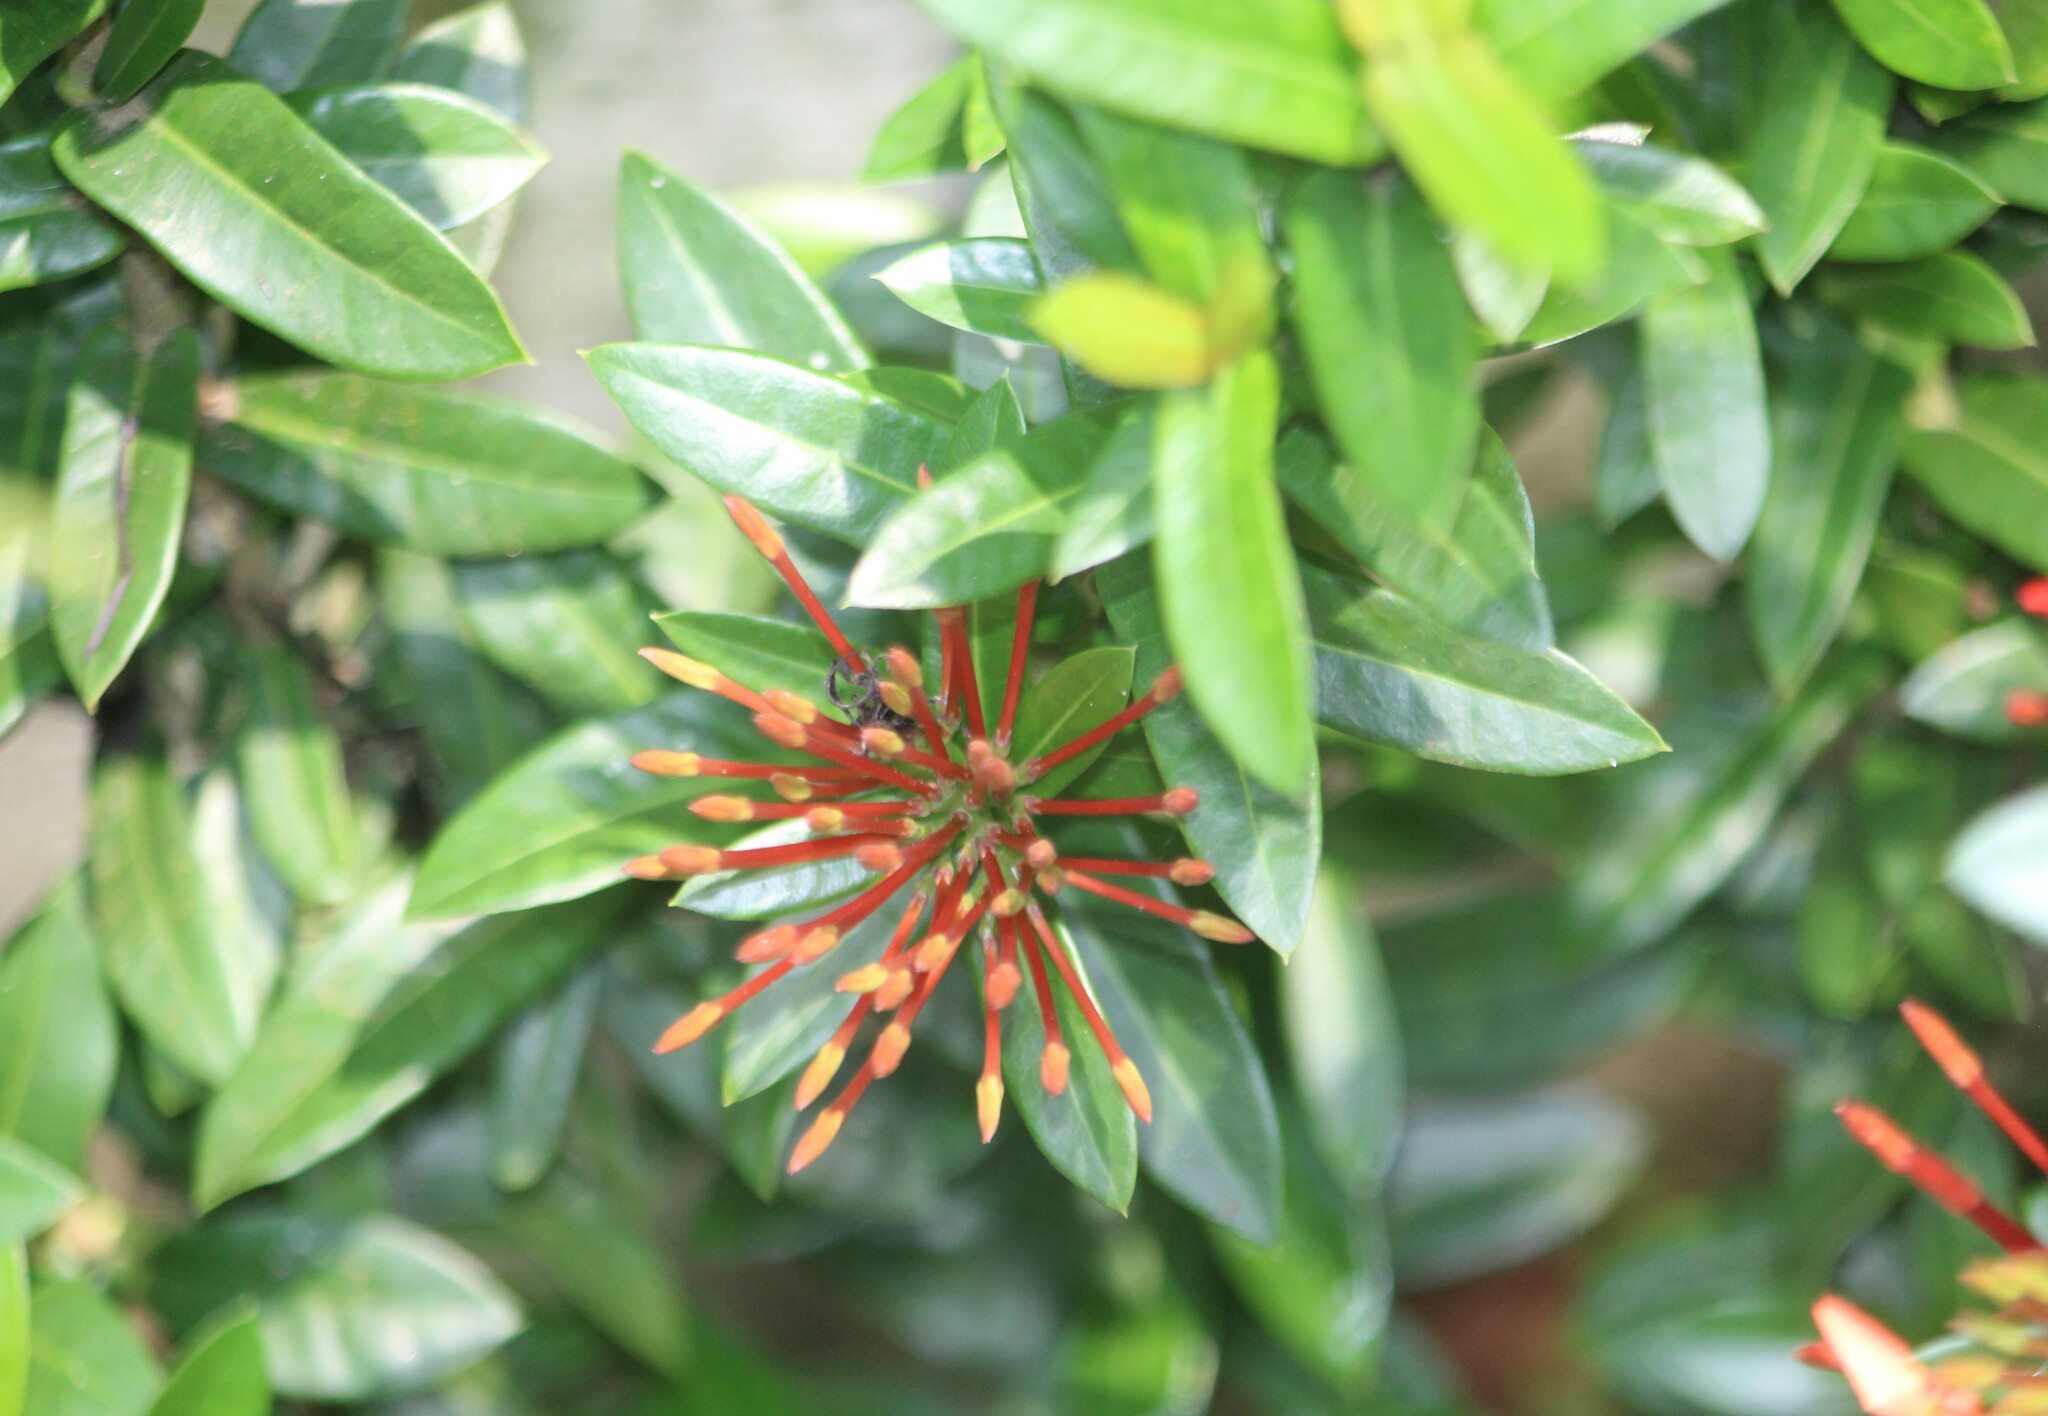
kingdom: Plantae
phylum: Tracheophyta
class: Magnoliopsida
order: Gentianales
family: Rubiaceae
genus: Ixora
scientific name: Ixora coccinea
